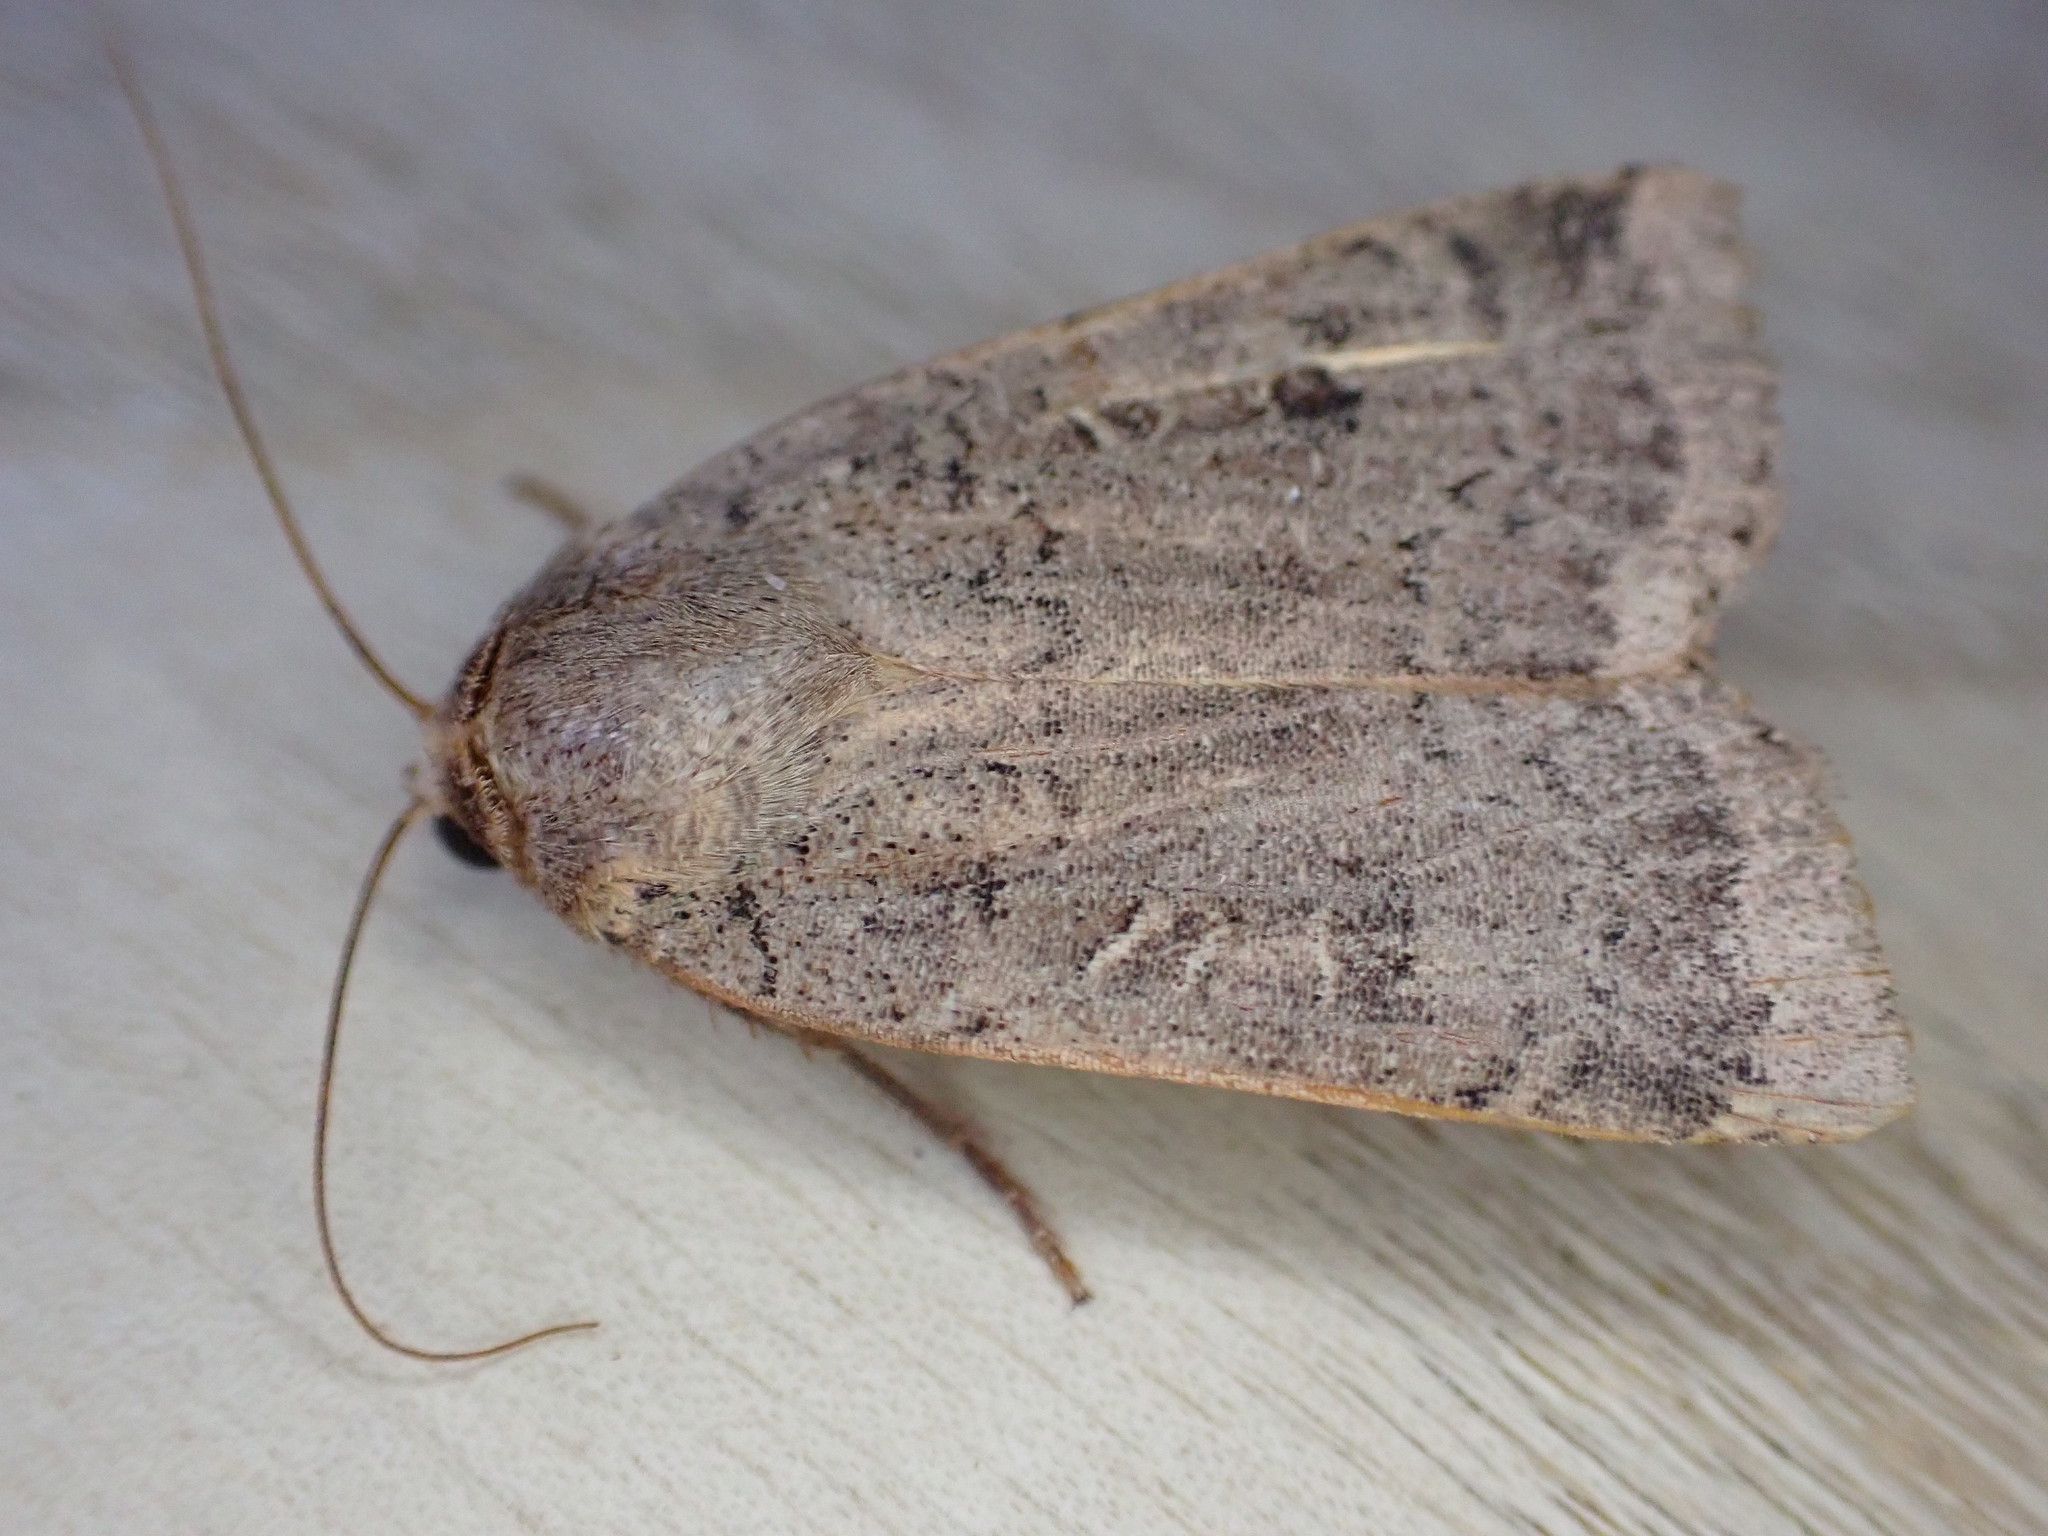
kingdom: Animalia
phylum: Arthropoda
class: Insecta
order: Lepidoptera
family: Noctuidae
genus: Noctua
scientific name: Noctua comes
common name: Lesser yellow underwing
